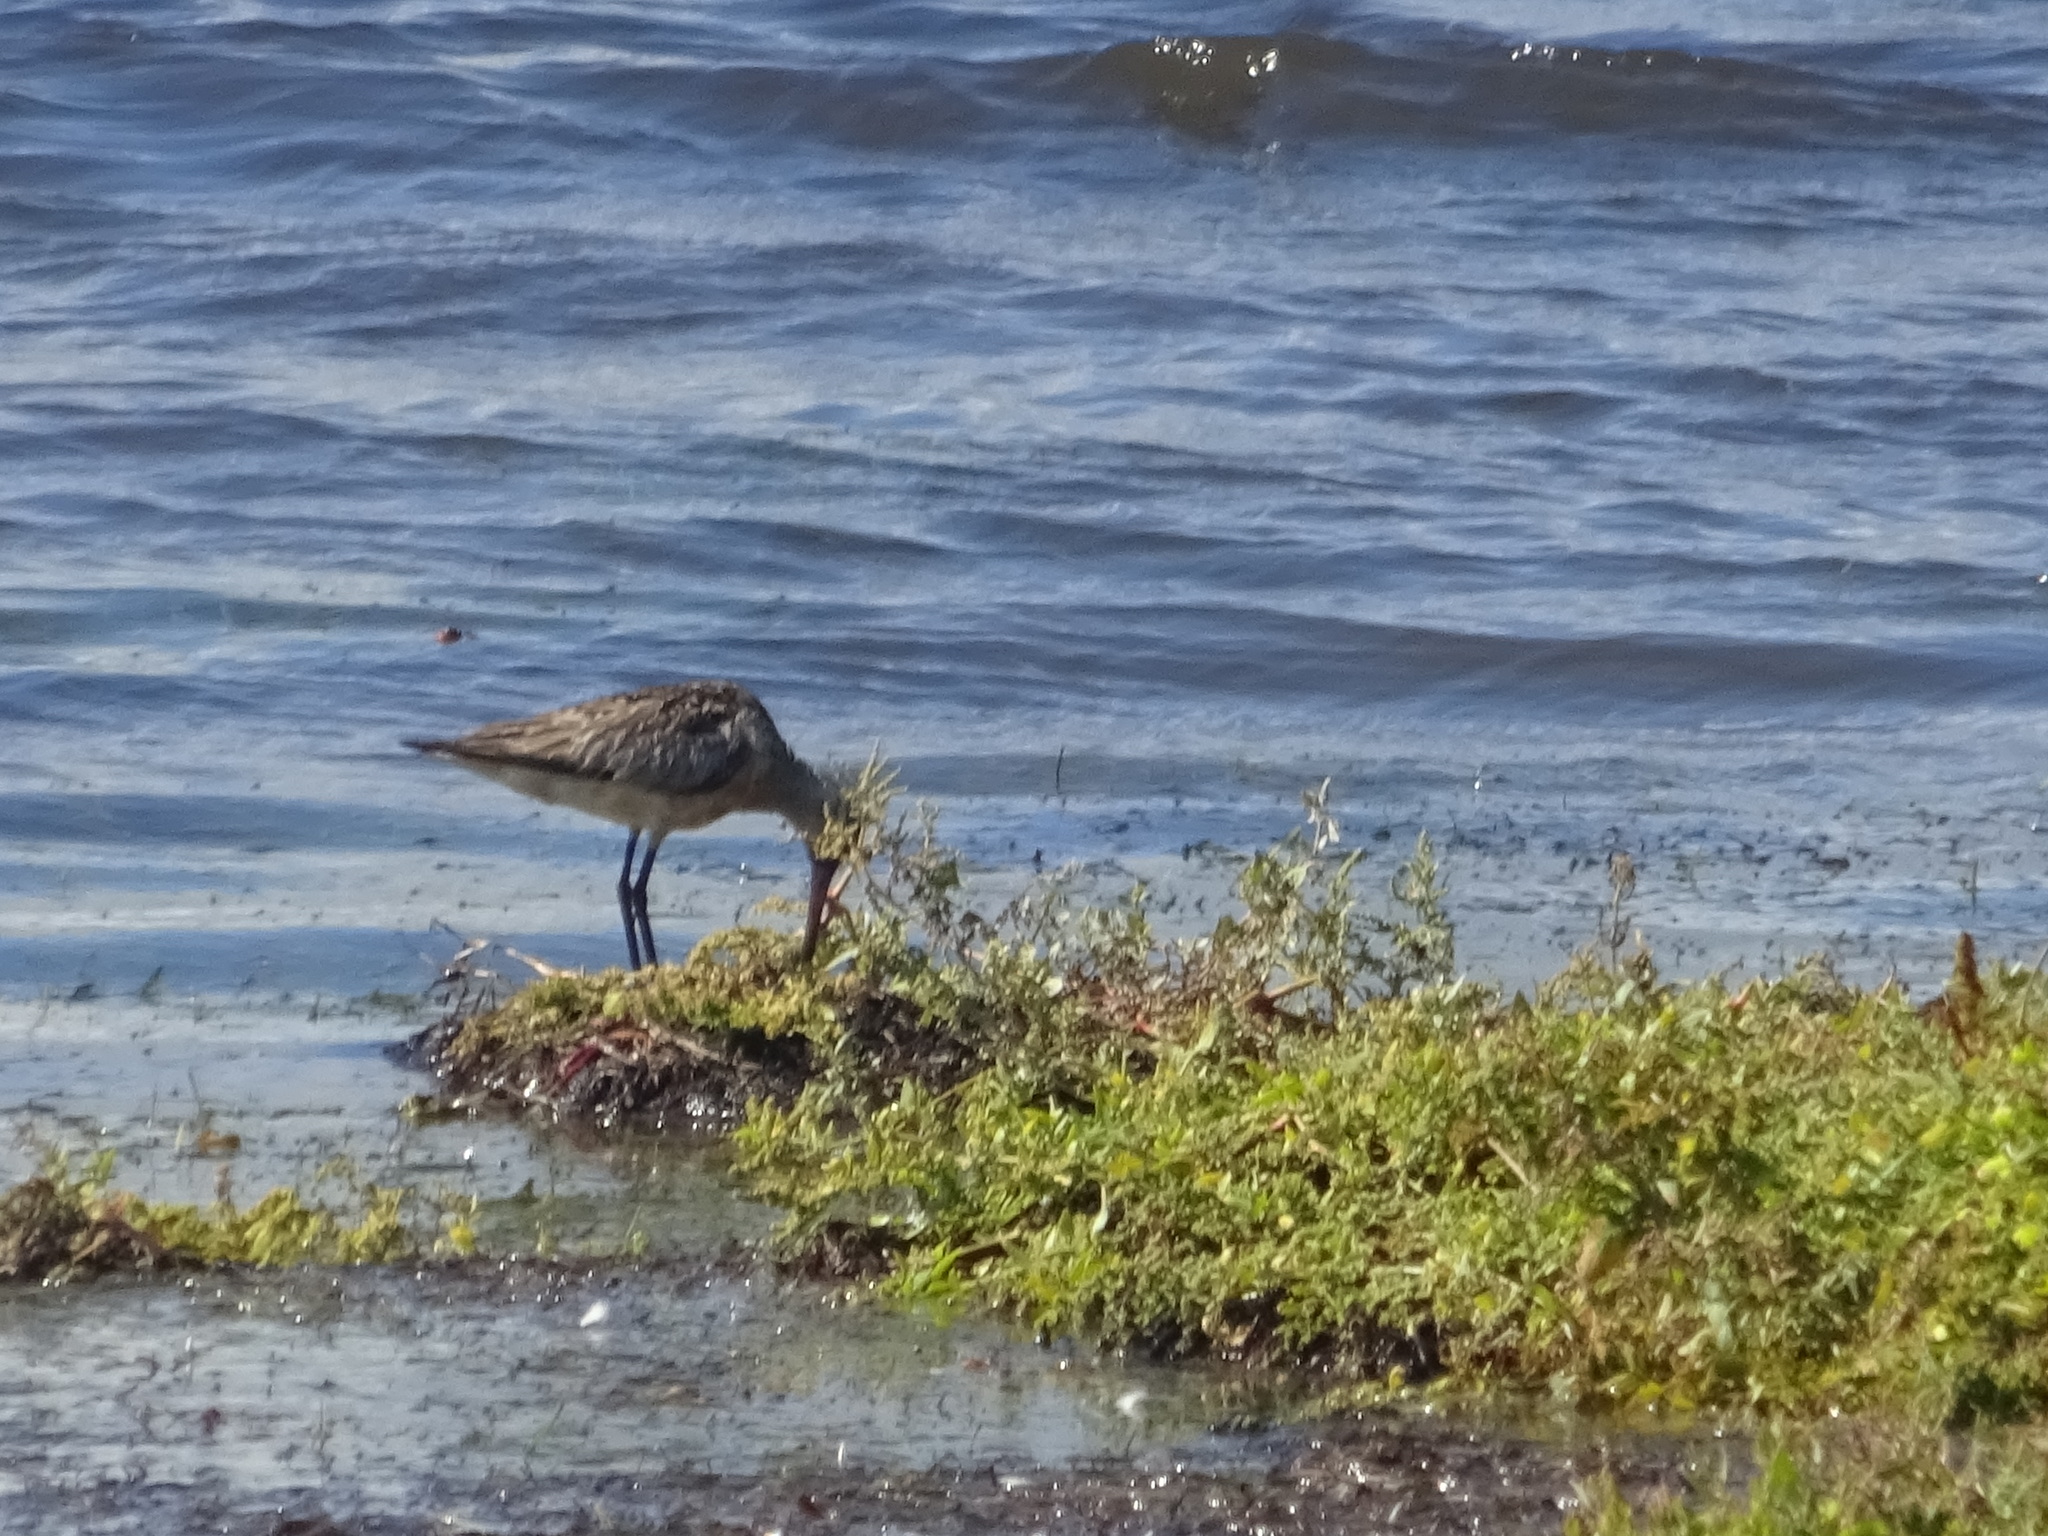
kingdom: Animalia
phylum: Chordata
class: Aves
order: Charadriiformes
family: Scolopacidae
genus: Limosa
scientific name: Limosa lapponica
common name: Bar-tailed godwit
